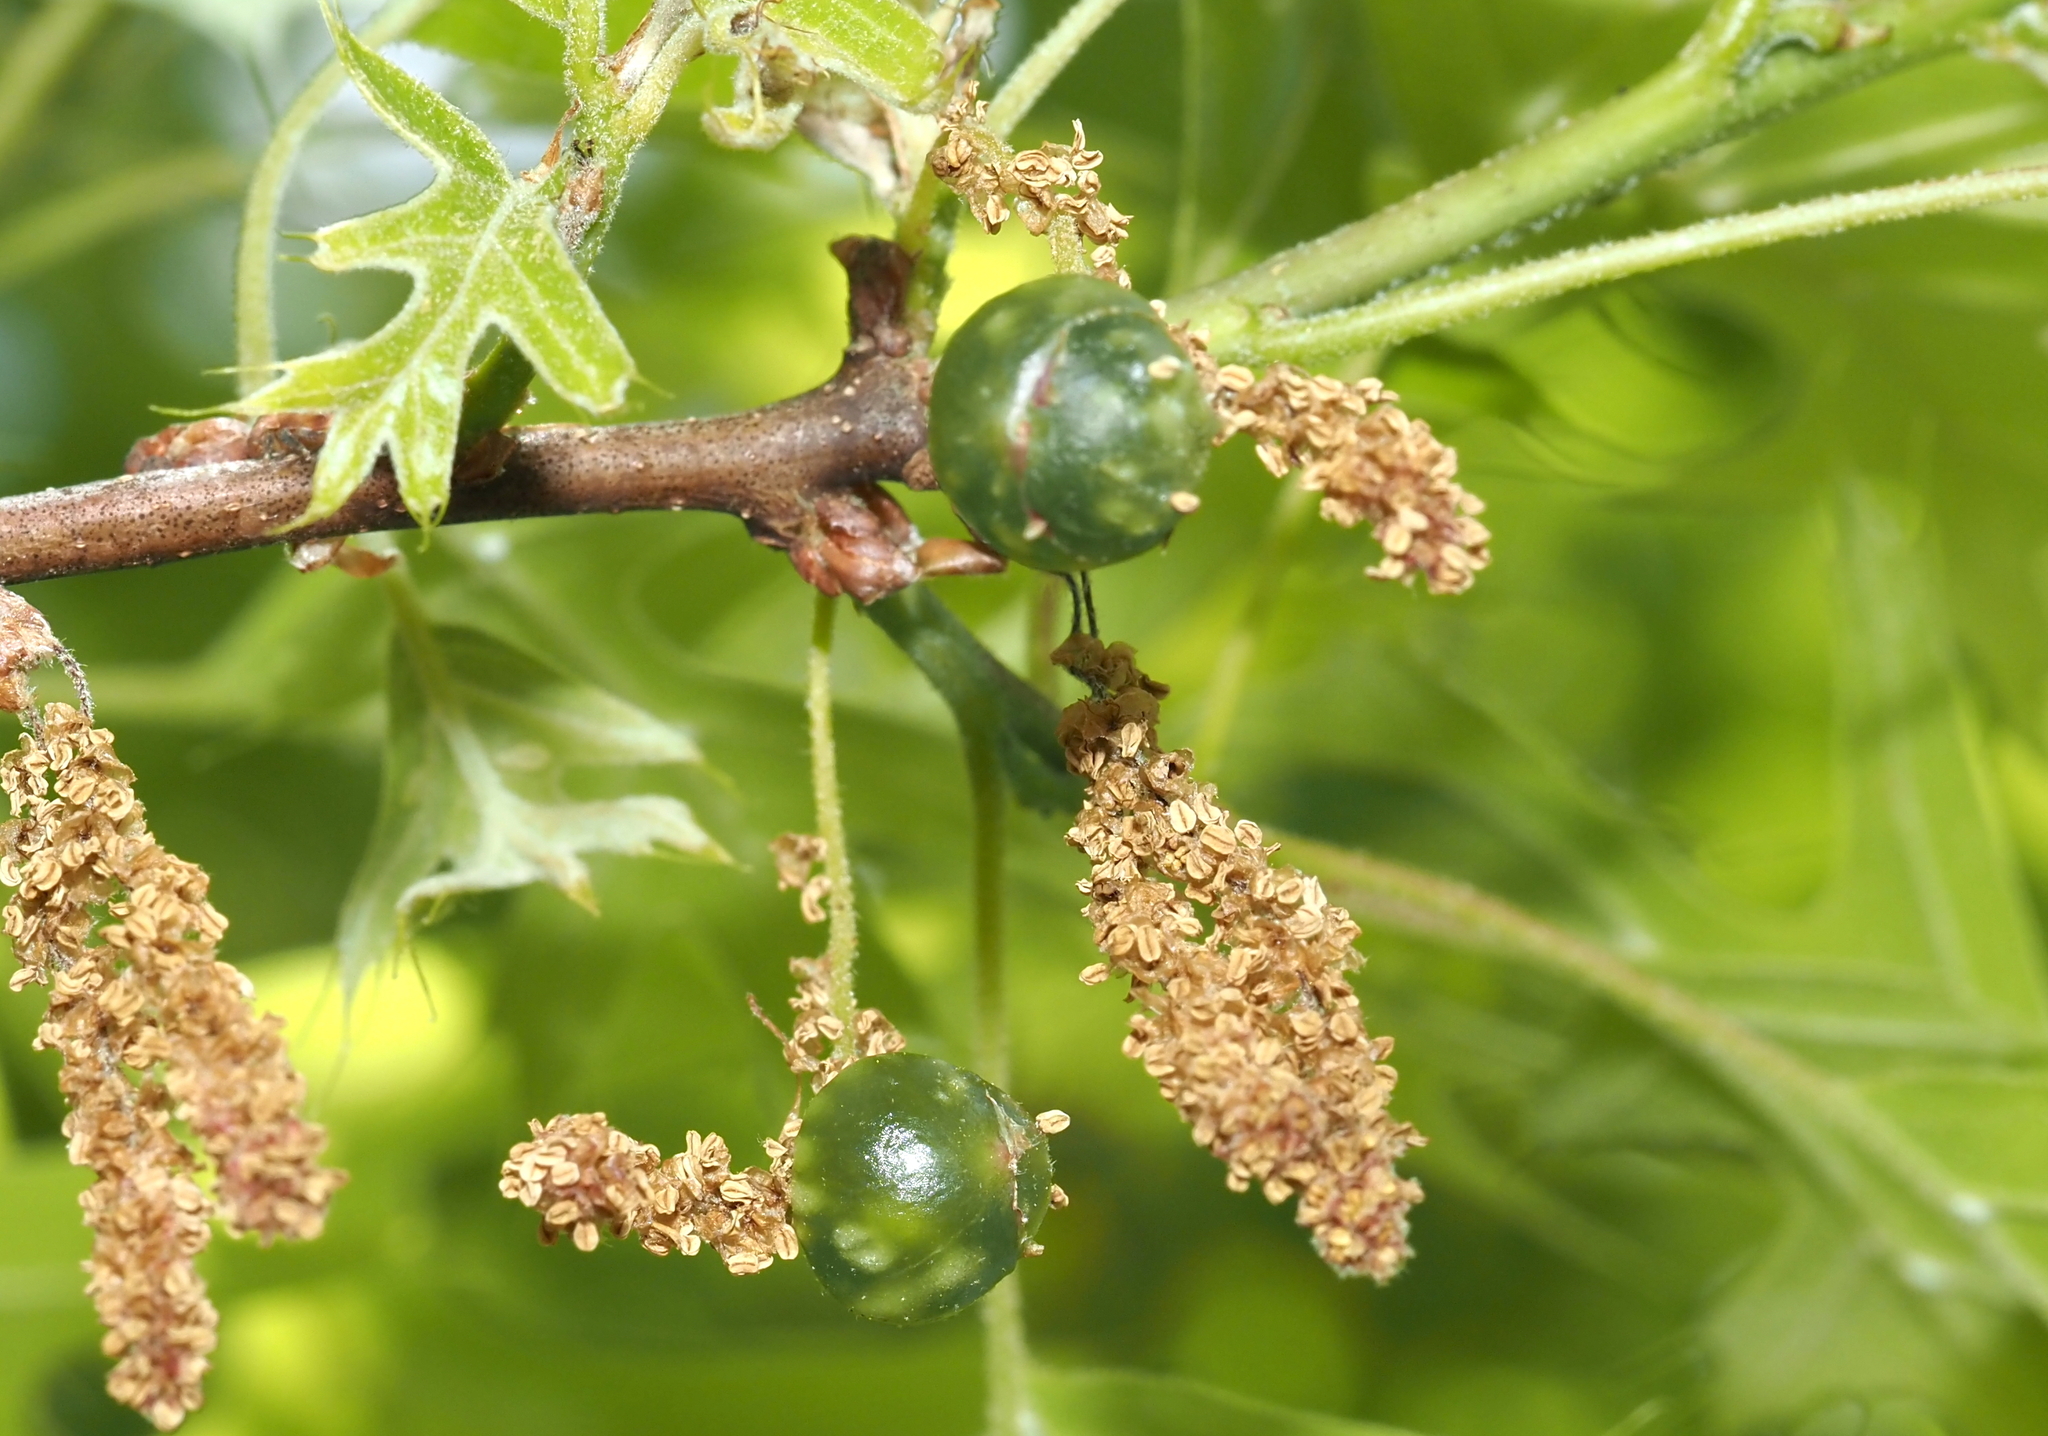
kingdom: Animalia
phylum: Arthropoda
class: Insecta
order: Hymenoptera
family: Cynipidae
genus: Dryocosmus
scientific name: Dryocosmus quercuspalustris
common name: Succulent oak gall wasp
